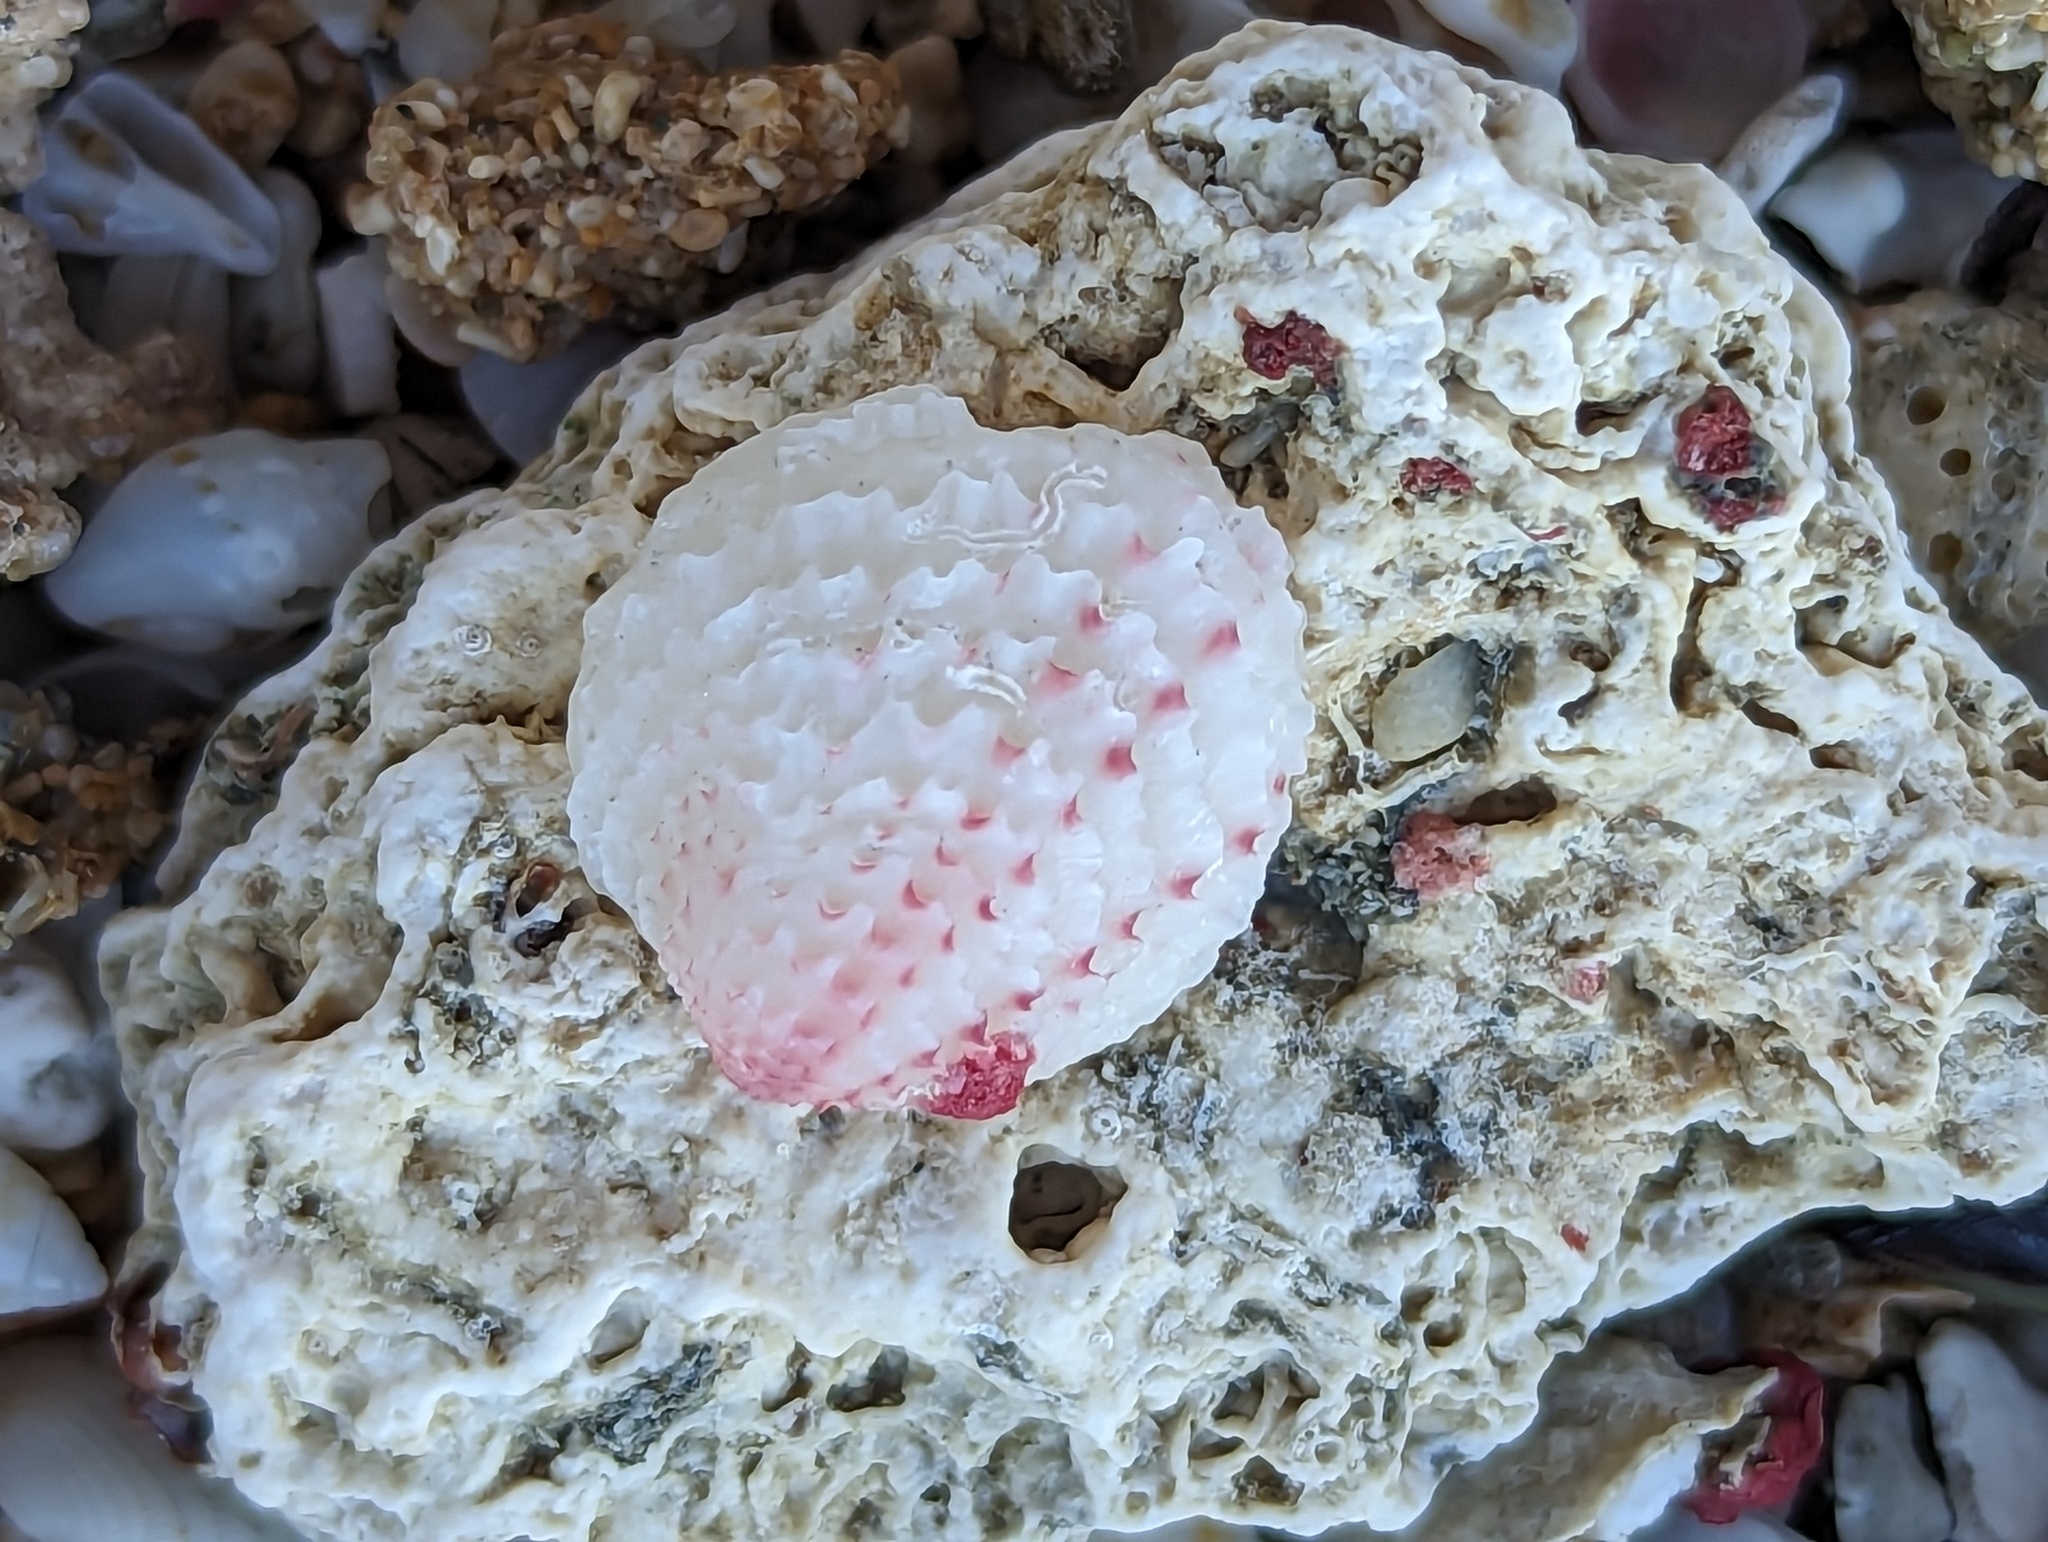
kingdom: Animalia
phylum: Mollusca
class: Bivalvia
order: Venerida
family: Chamidae
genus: Chama
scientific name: Chama florida
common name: Blushed jewelbox
